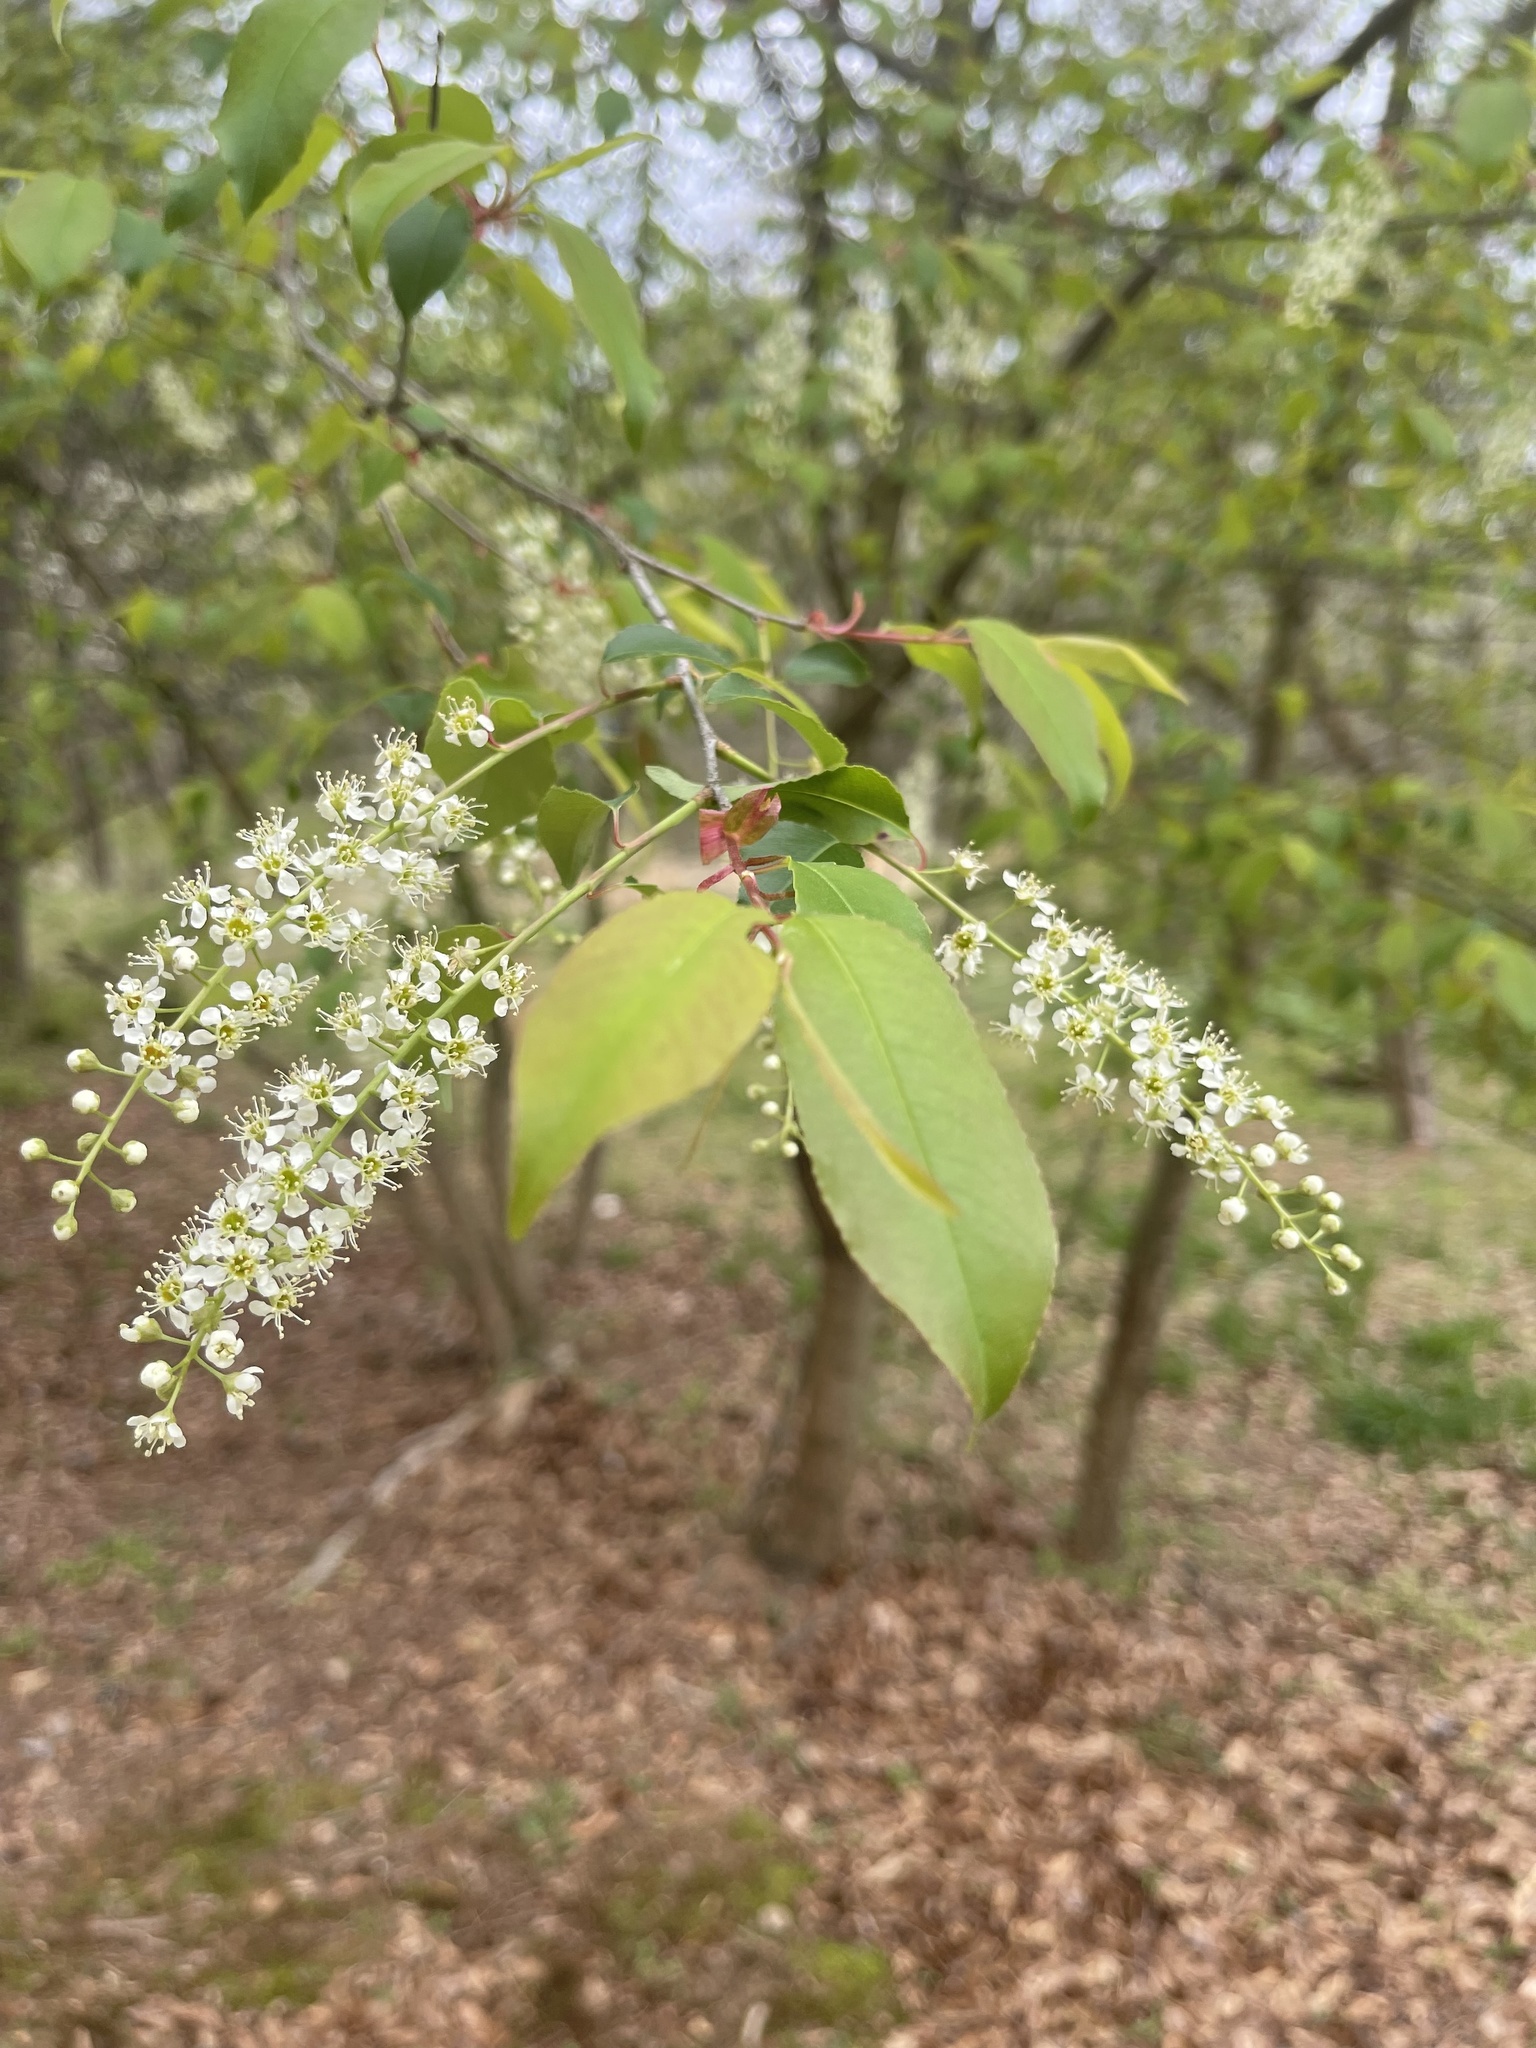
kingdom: Plantae
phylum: Tracheophyta
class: Magnoliopsida
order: Rosales
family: Rosaceae
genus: Prunus
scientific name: Prunus serotina
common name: Black cherry
